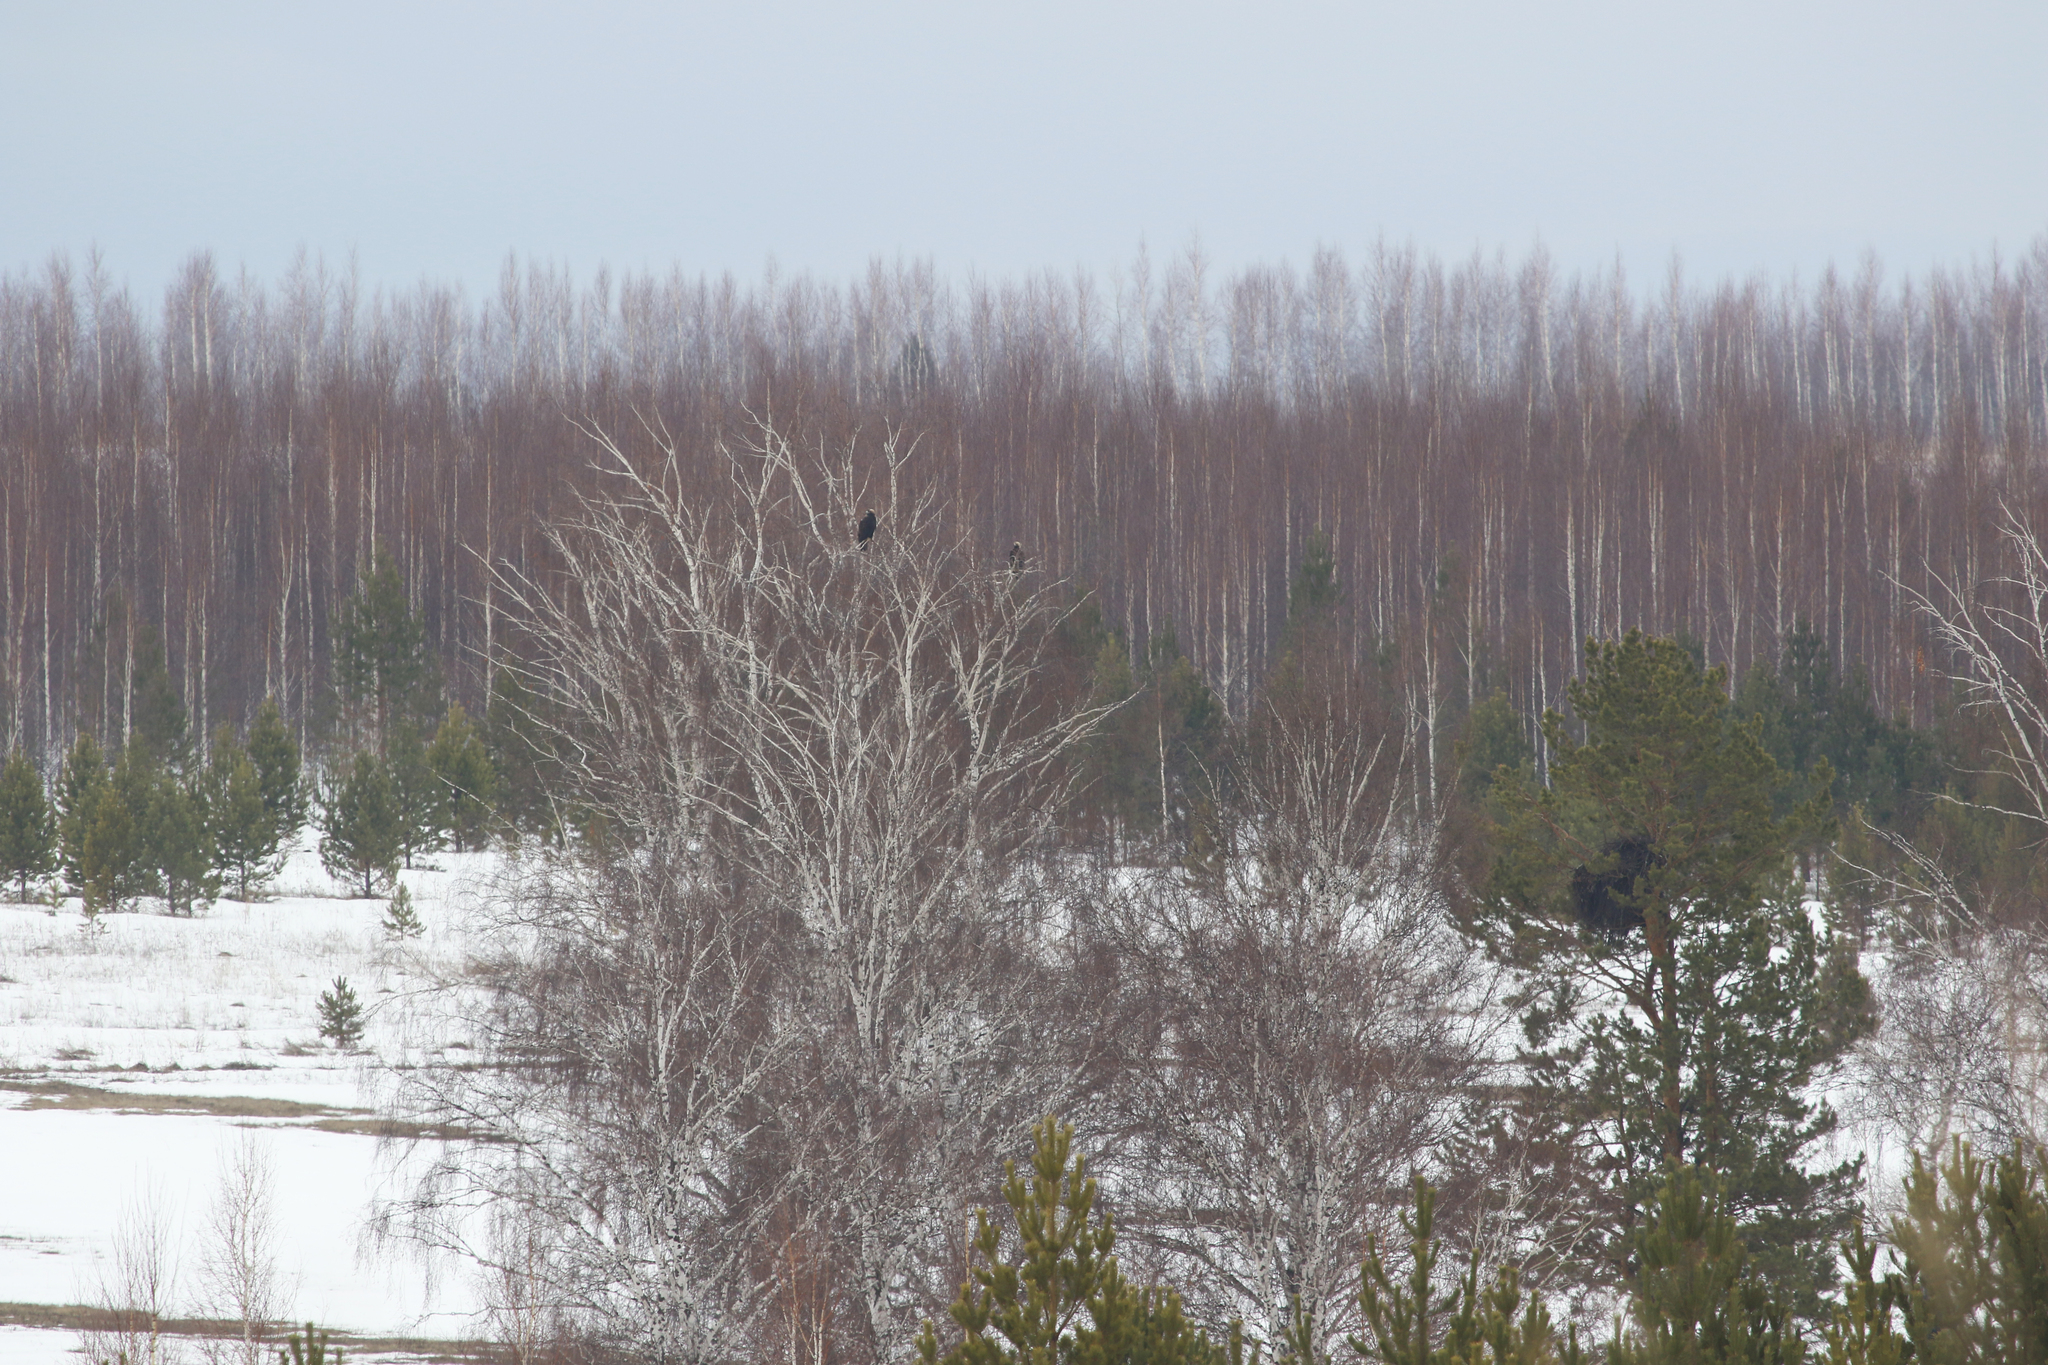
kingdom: Animalia
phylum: Chordata
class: Aves
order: Accipitriformes
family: Accipitridae
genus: Aquila
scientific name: Aquila heliaca
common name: Eastern imperial eagle
